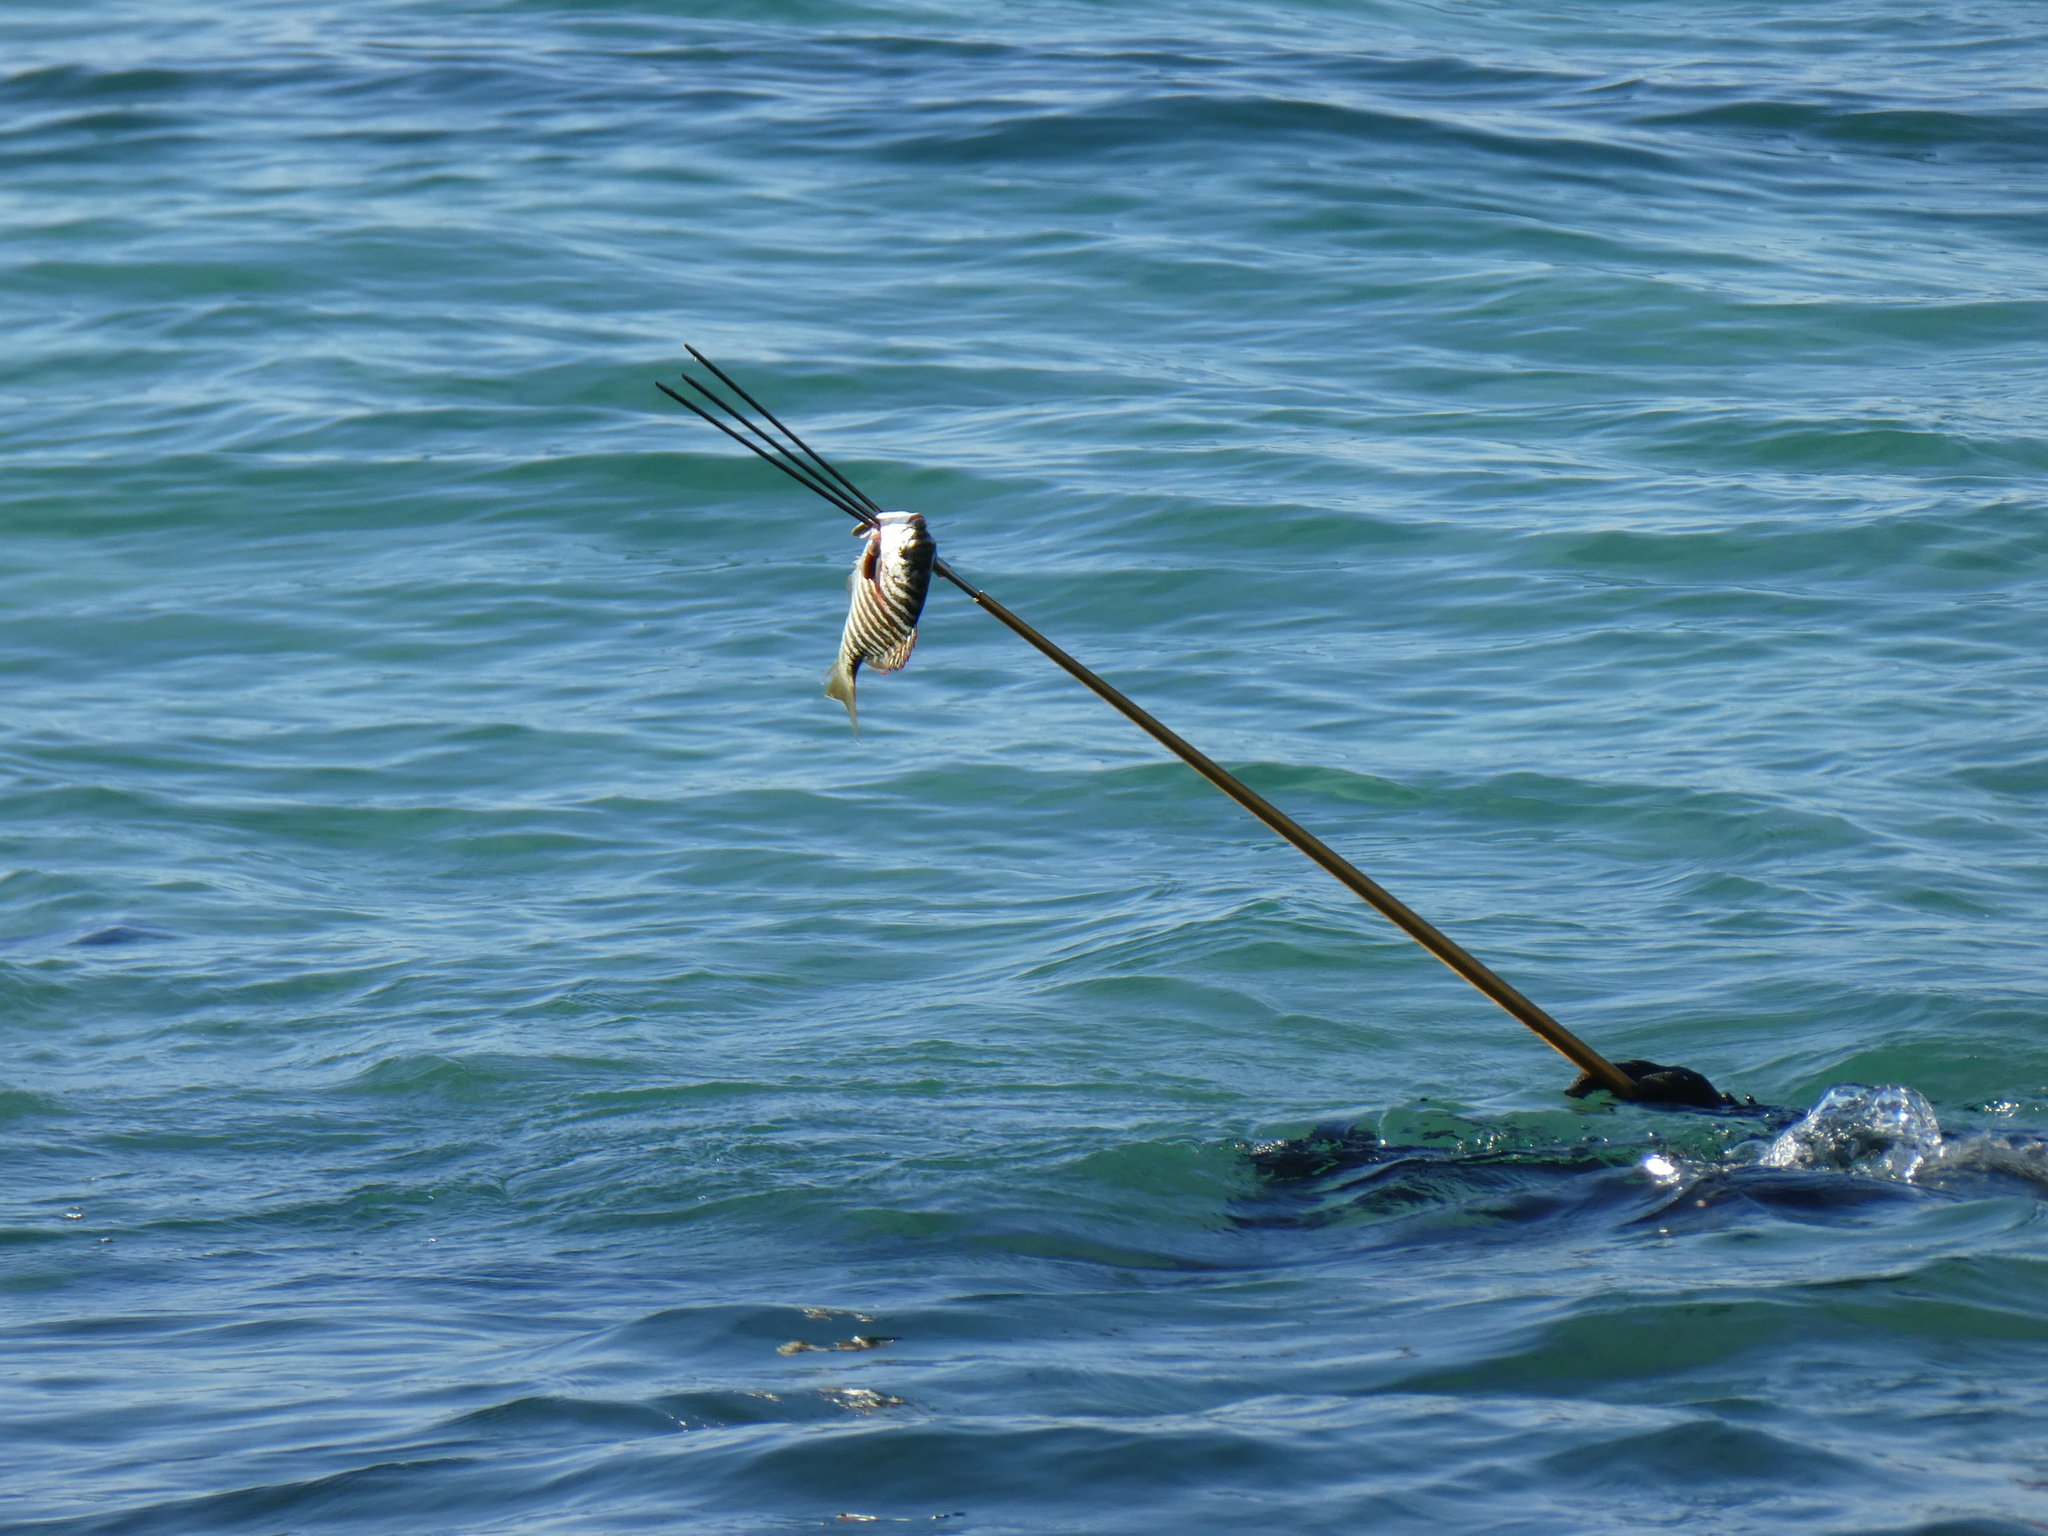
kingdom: Animalia
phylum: Chordata
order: Perciformes
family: Kyphosidae
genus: Kyphosus
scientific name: Kyphosus azureus
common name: Perch
